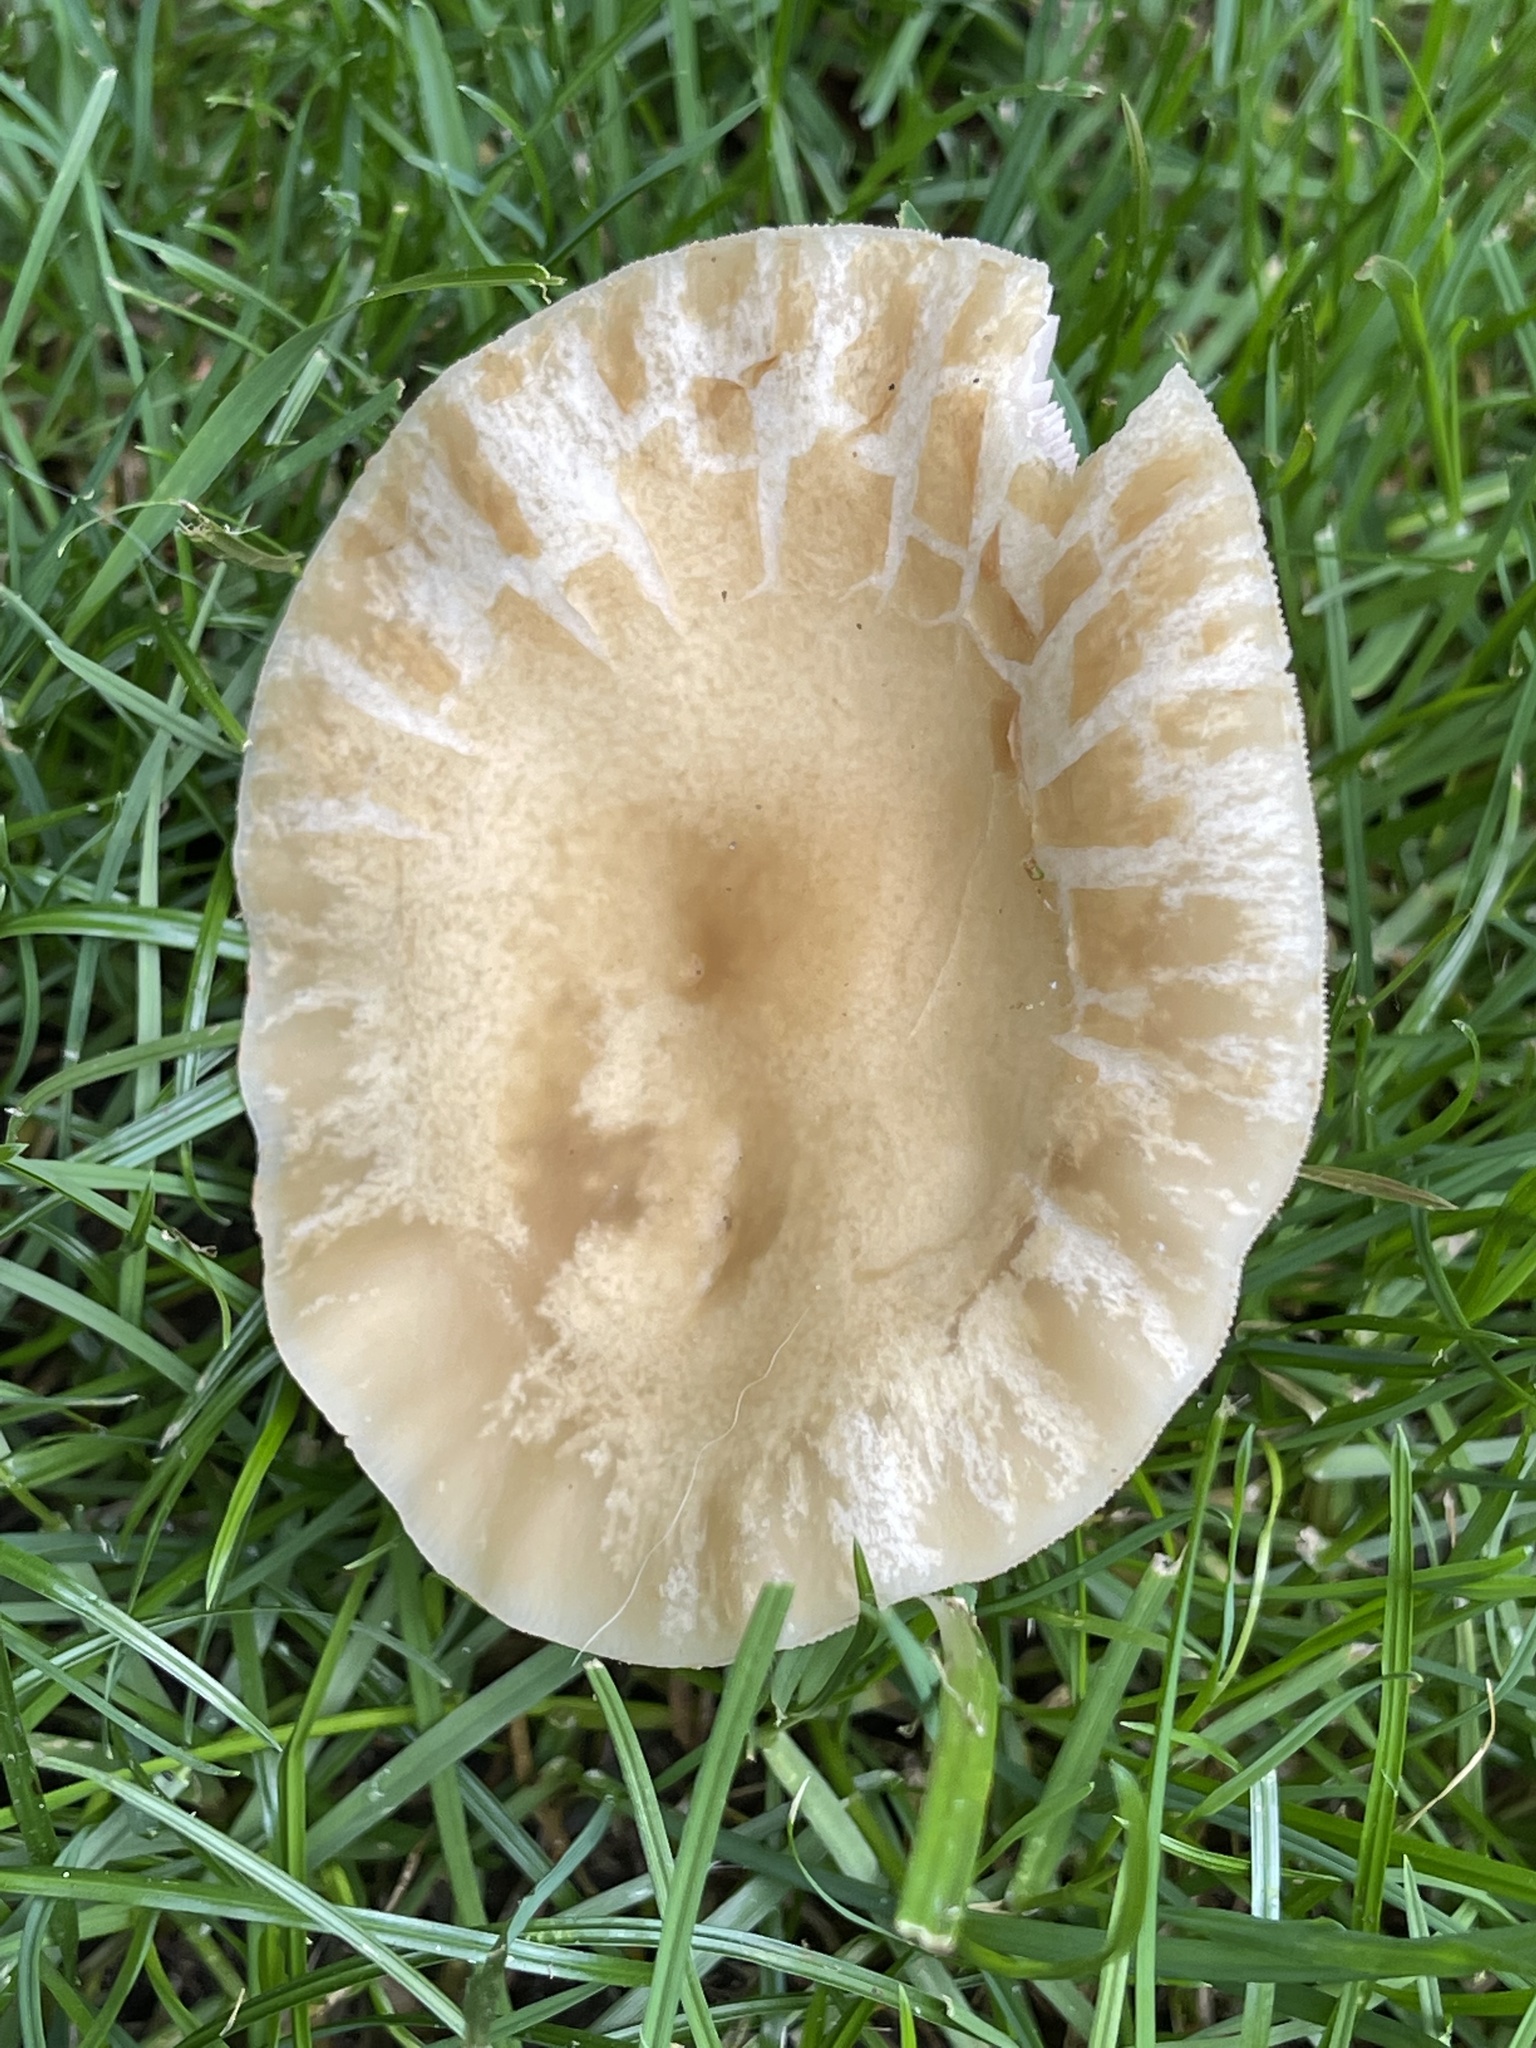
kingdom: Fungi
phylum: Basidiomycota
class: Agaricomycetes
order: Agaricales
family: Strophariaceae
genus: Agrocybe
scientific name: Agrocybe praecox
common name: Spring fieldcap
